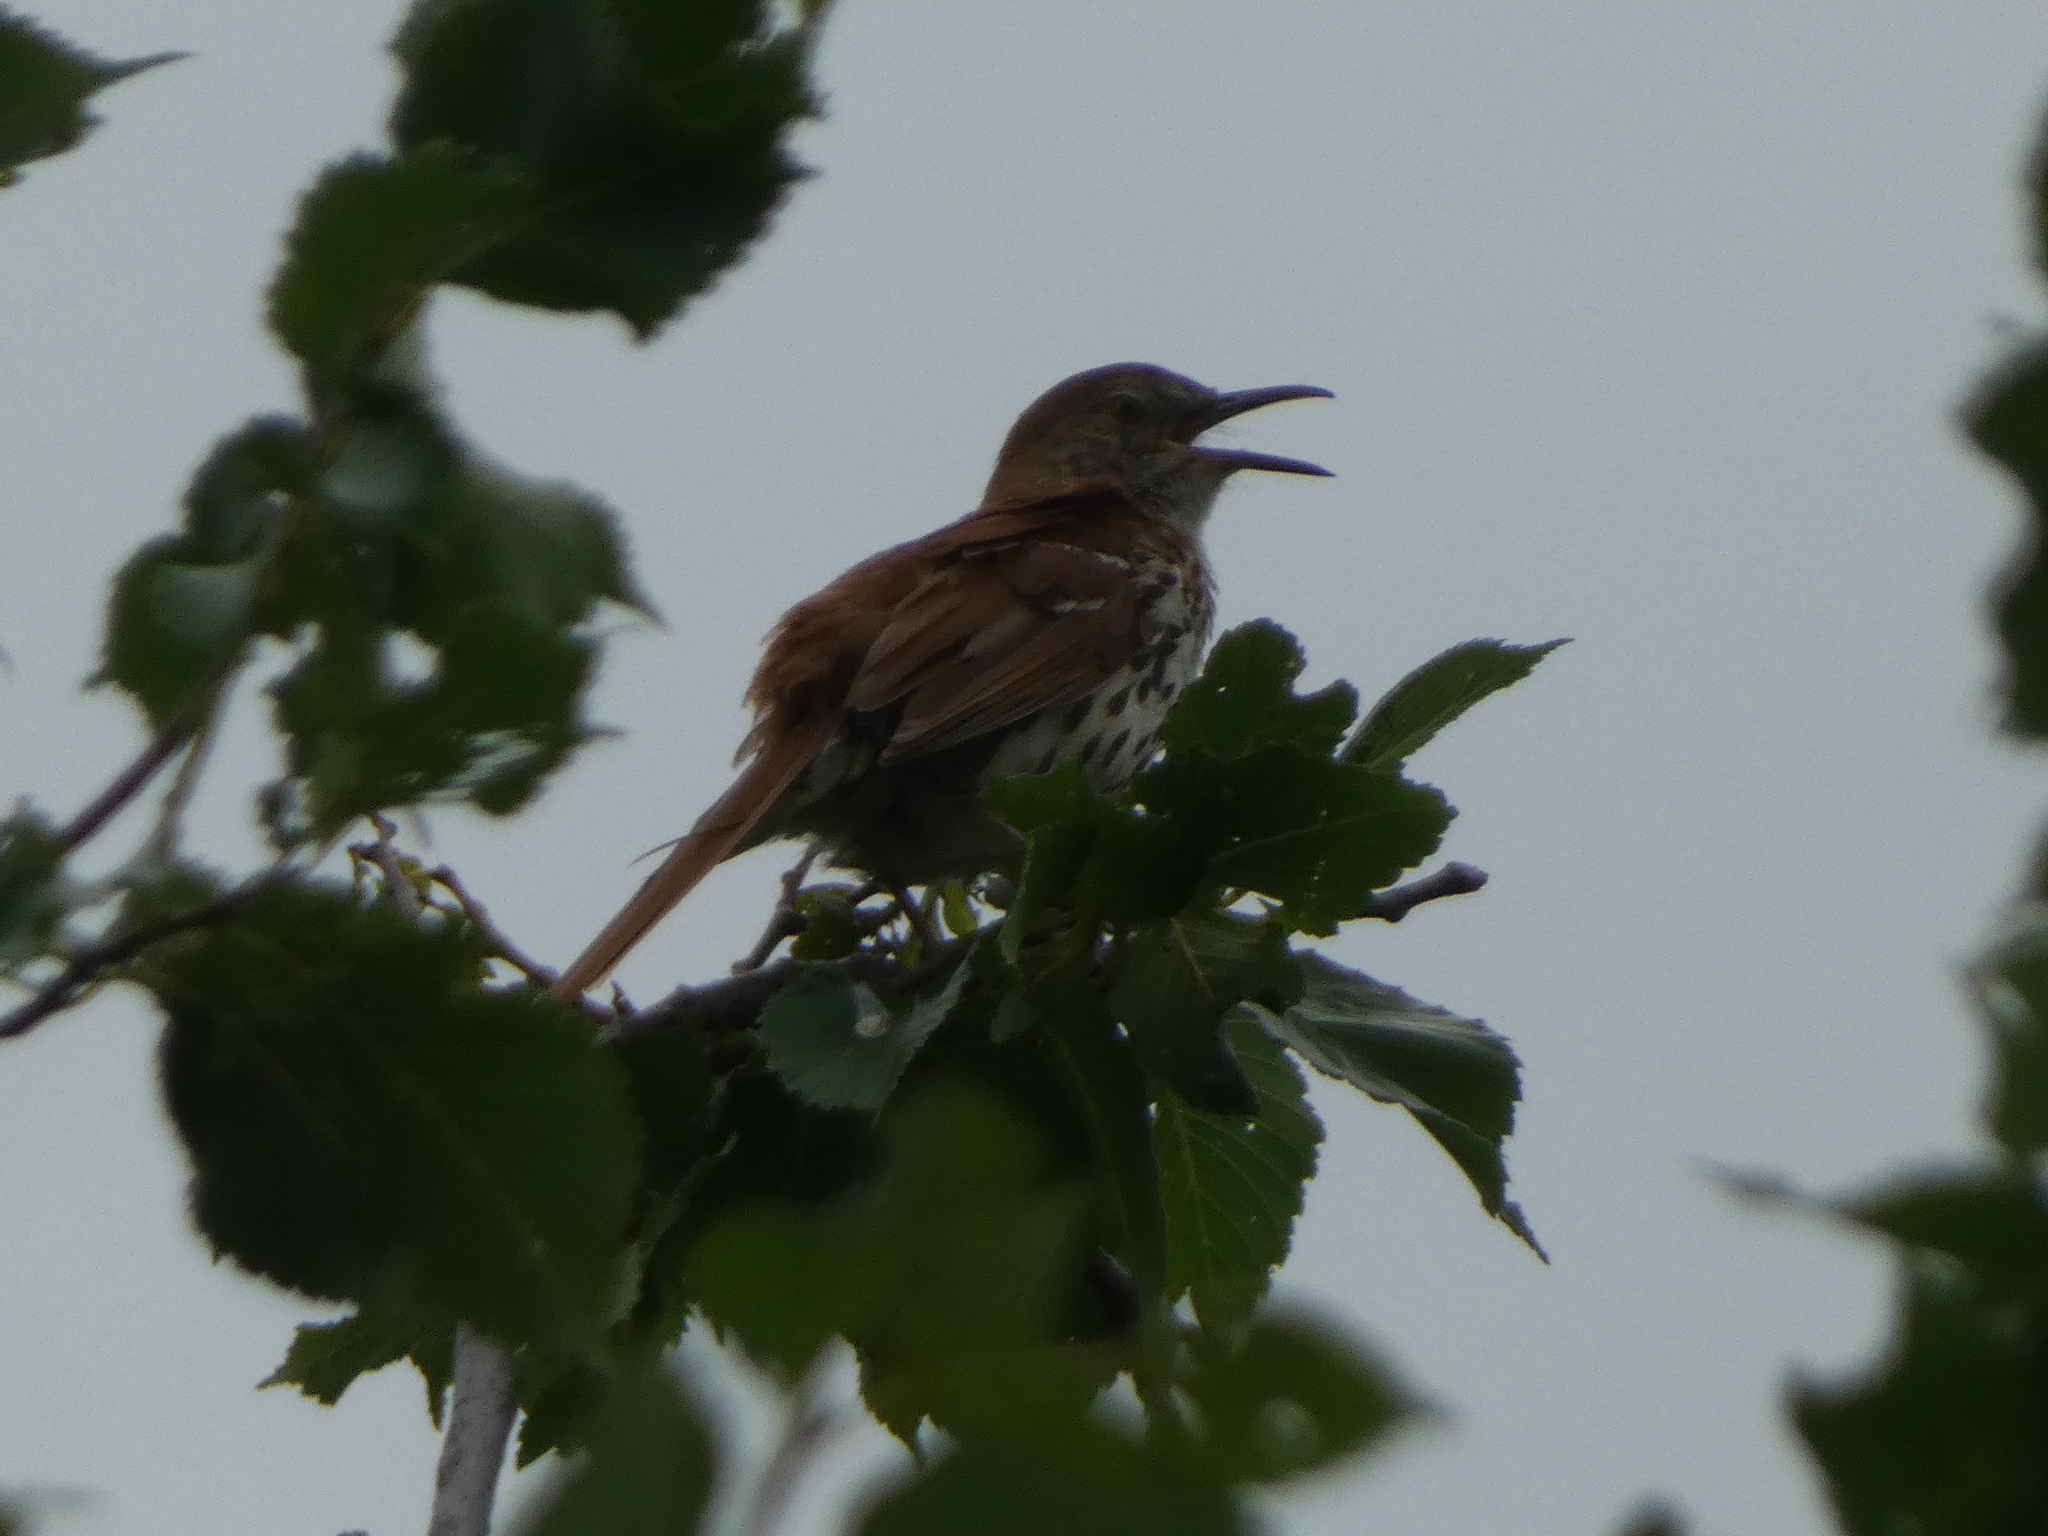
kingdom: Animalia
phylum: Chordata
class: Aves
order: Passeriformes
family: Mimidae
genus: Toxostoma
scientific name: Toxostoma rufum
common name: Brown thrasher
